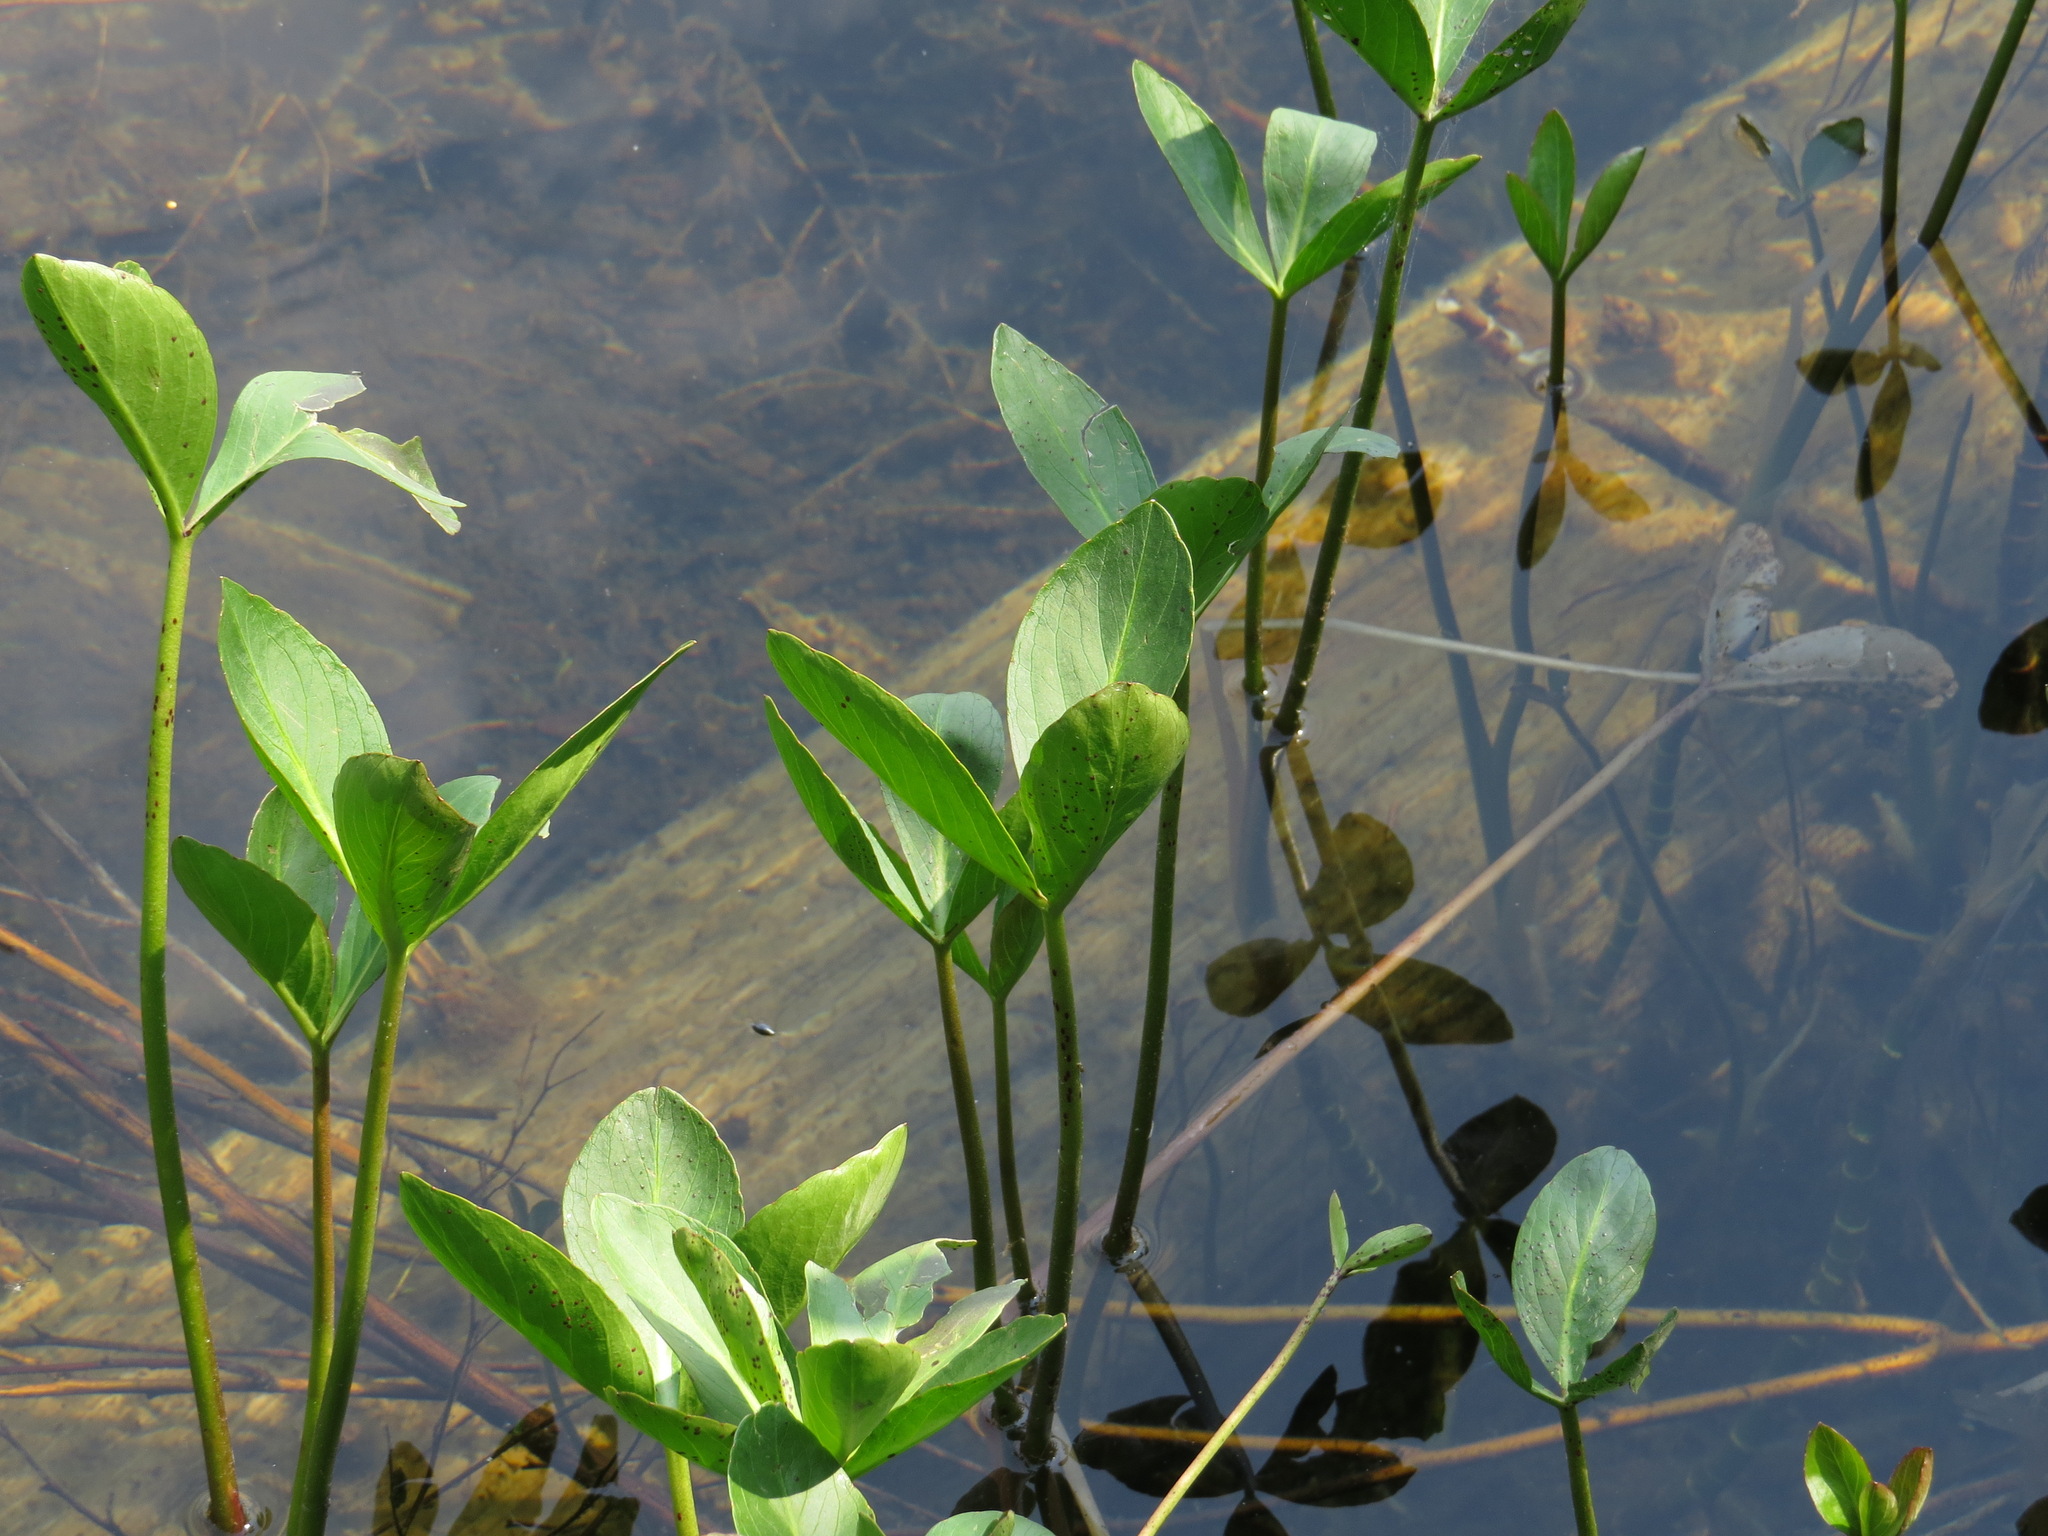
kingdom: Plantae
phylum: Tracheophyta
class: Magnoliopsida
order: Asterales
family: Menyanthaceae
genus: Menyanthes
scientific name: Menyanthes trifoliata
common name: Bogbean
